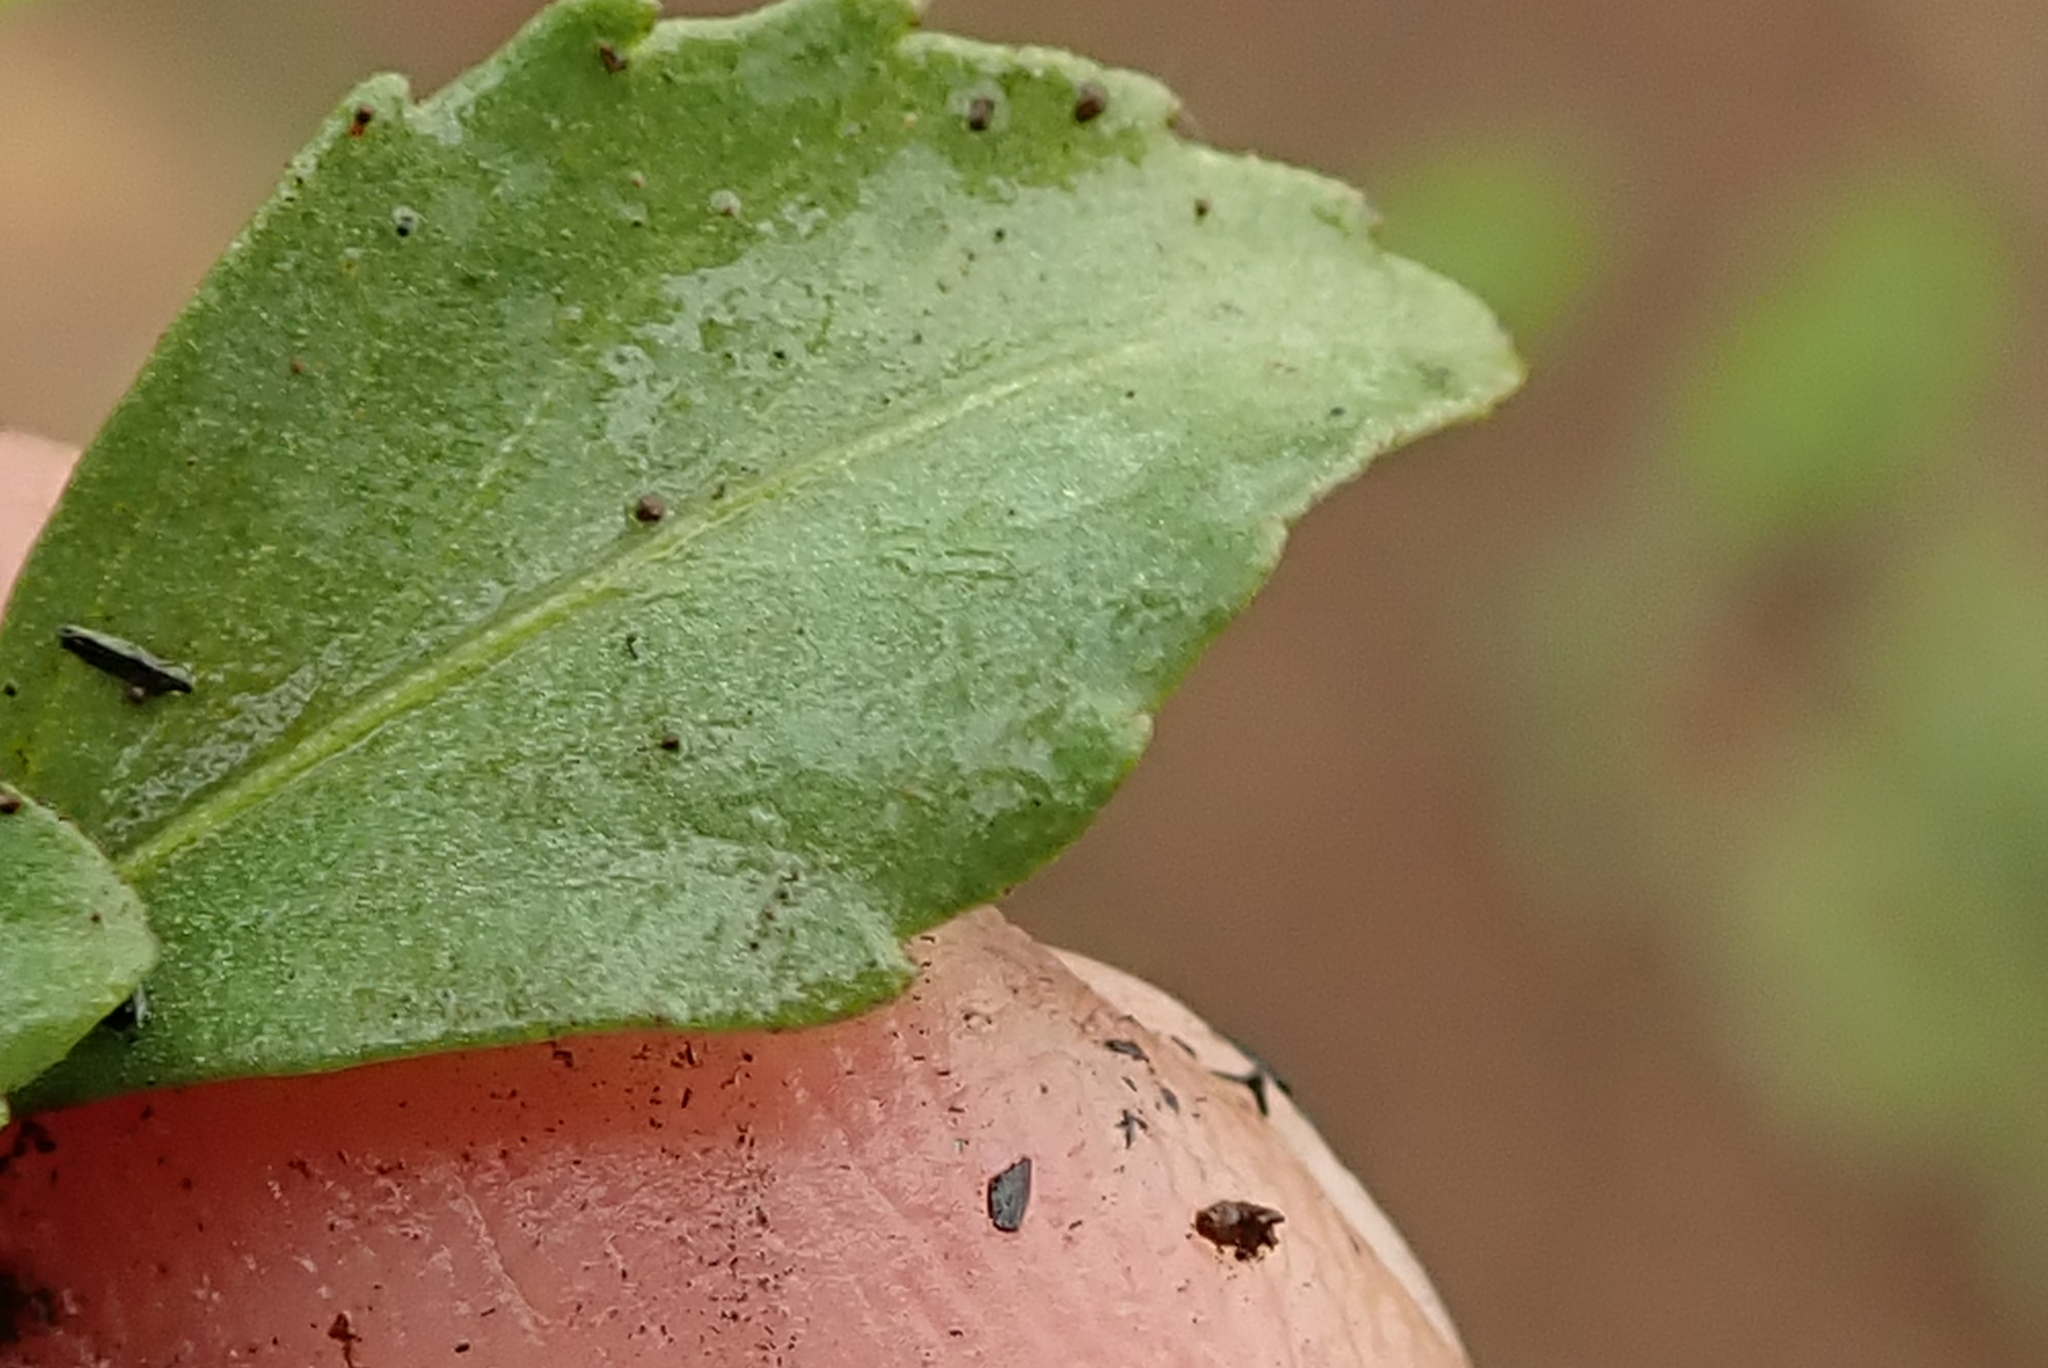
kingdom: Plantae
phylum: Tracheophyta
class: Magnoliopsida
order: Malpighiales
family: Violaceae
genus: Pombalia
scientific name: Pombalia parviflora
